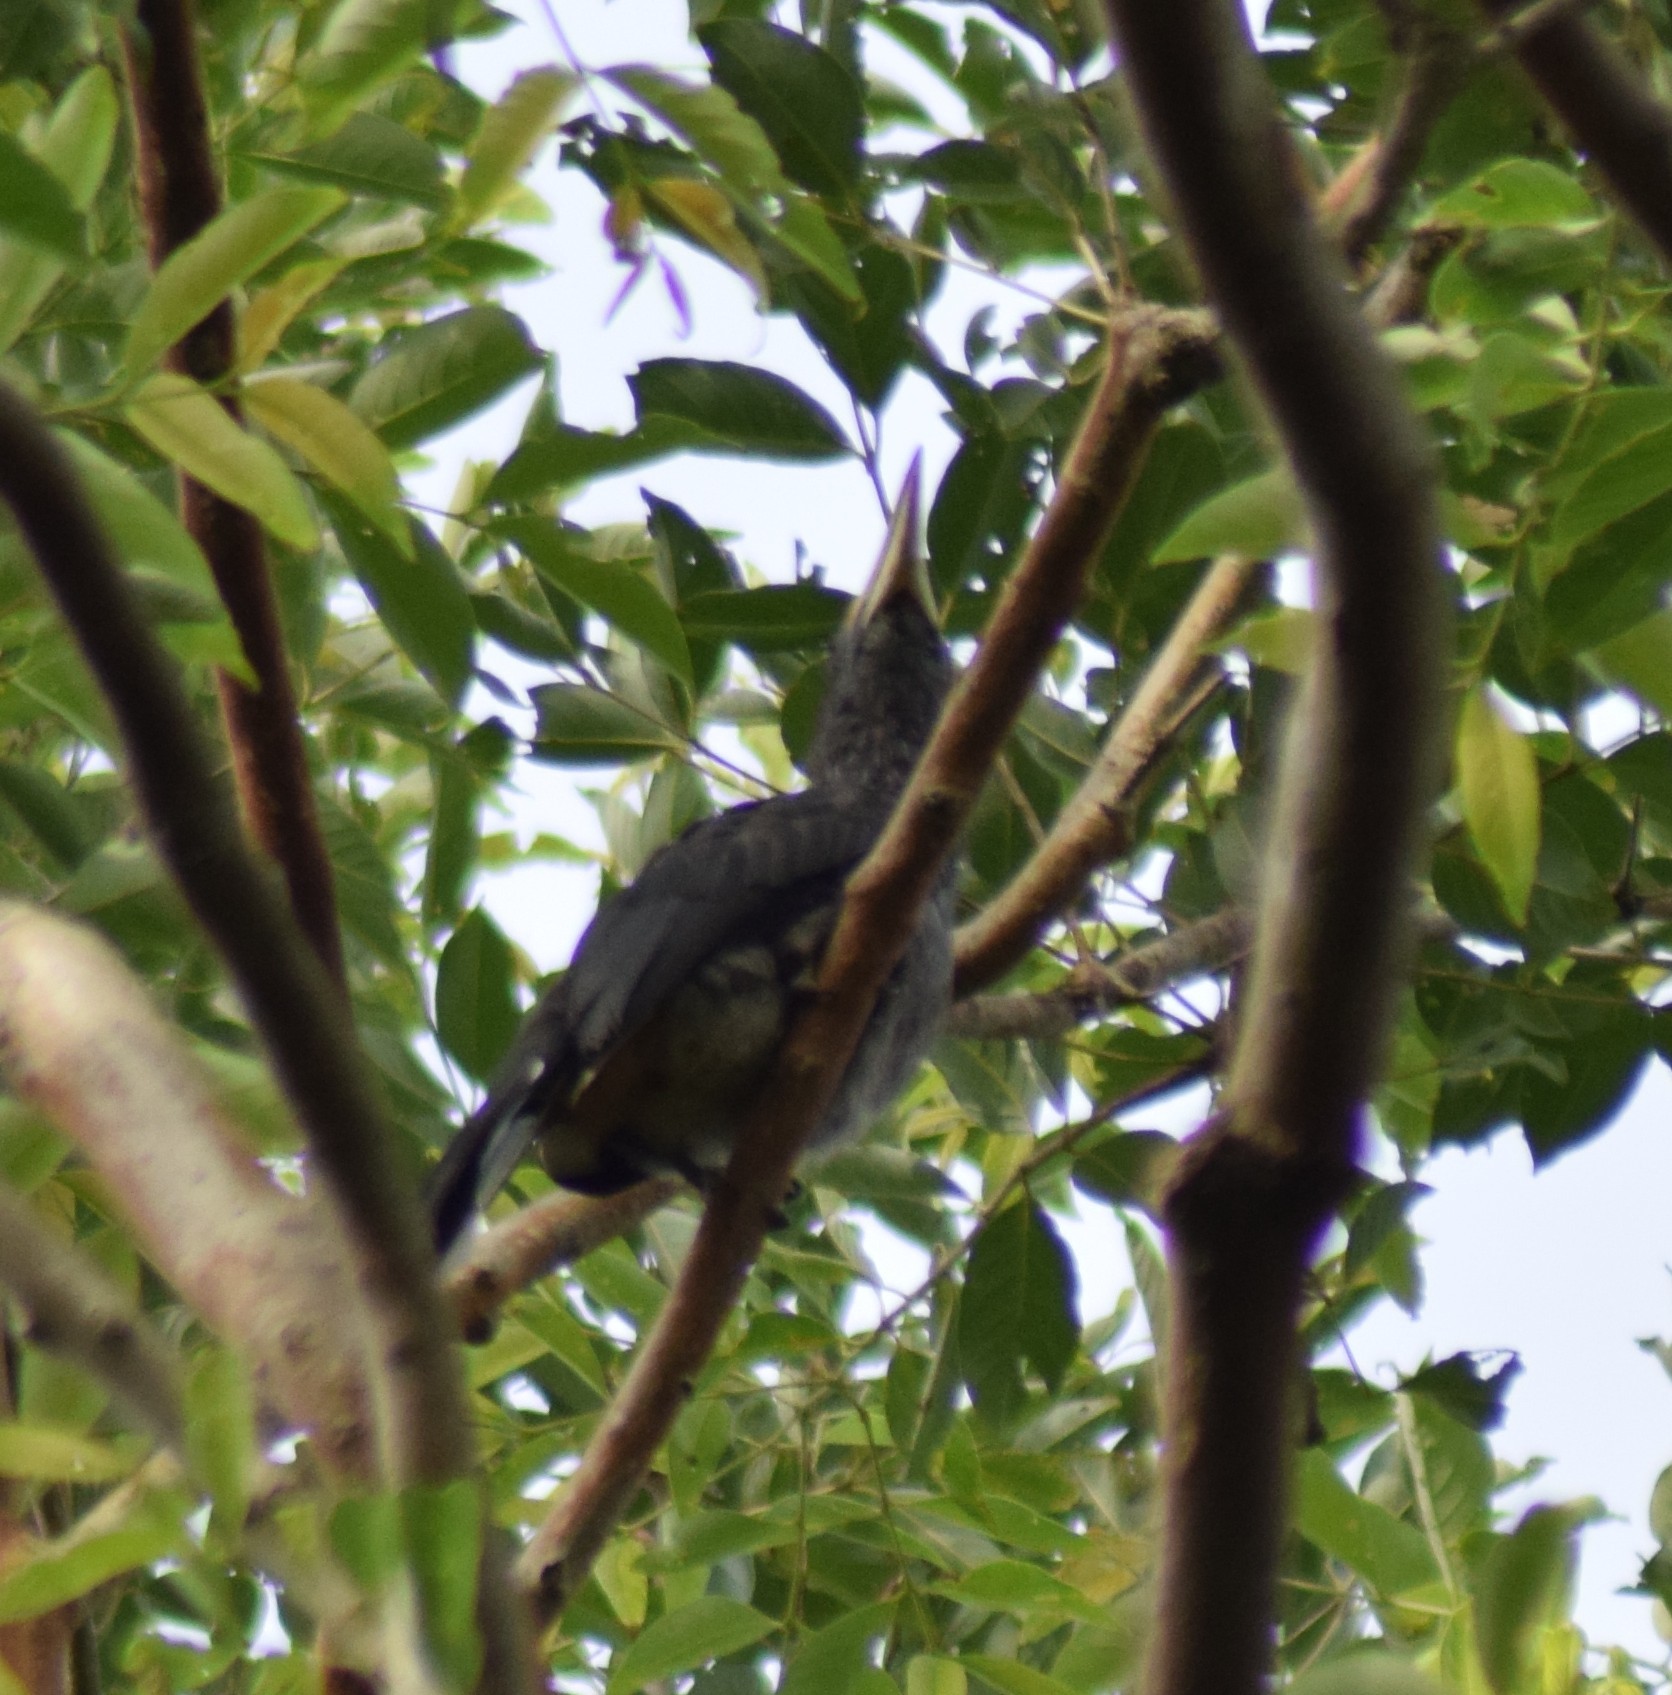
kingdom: Animalia
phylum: Chordata
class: Aves
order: Bucerotiformes
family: Bucerotidae
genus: Ocyceros
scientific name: Ocyceros griseus
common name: Malabar grey hornbill
